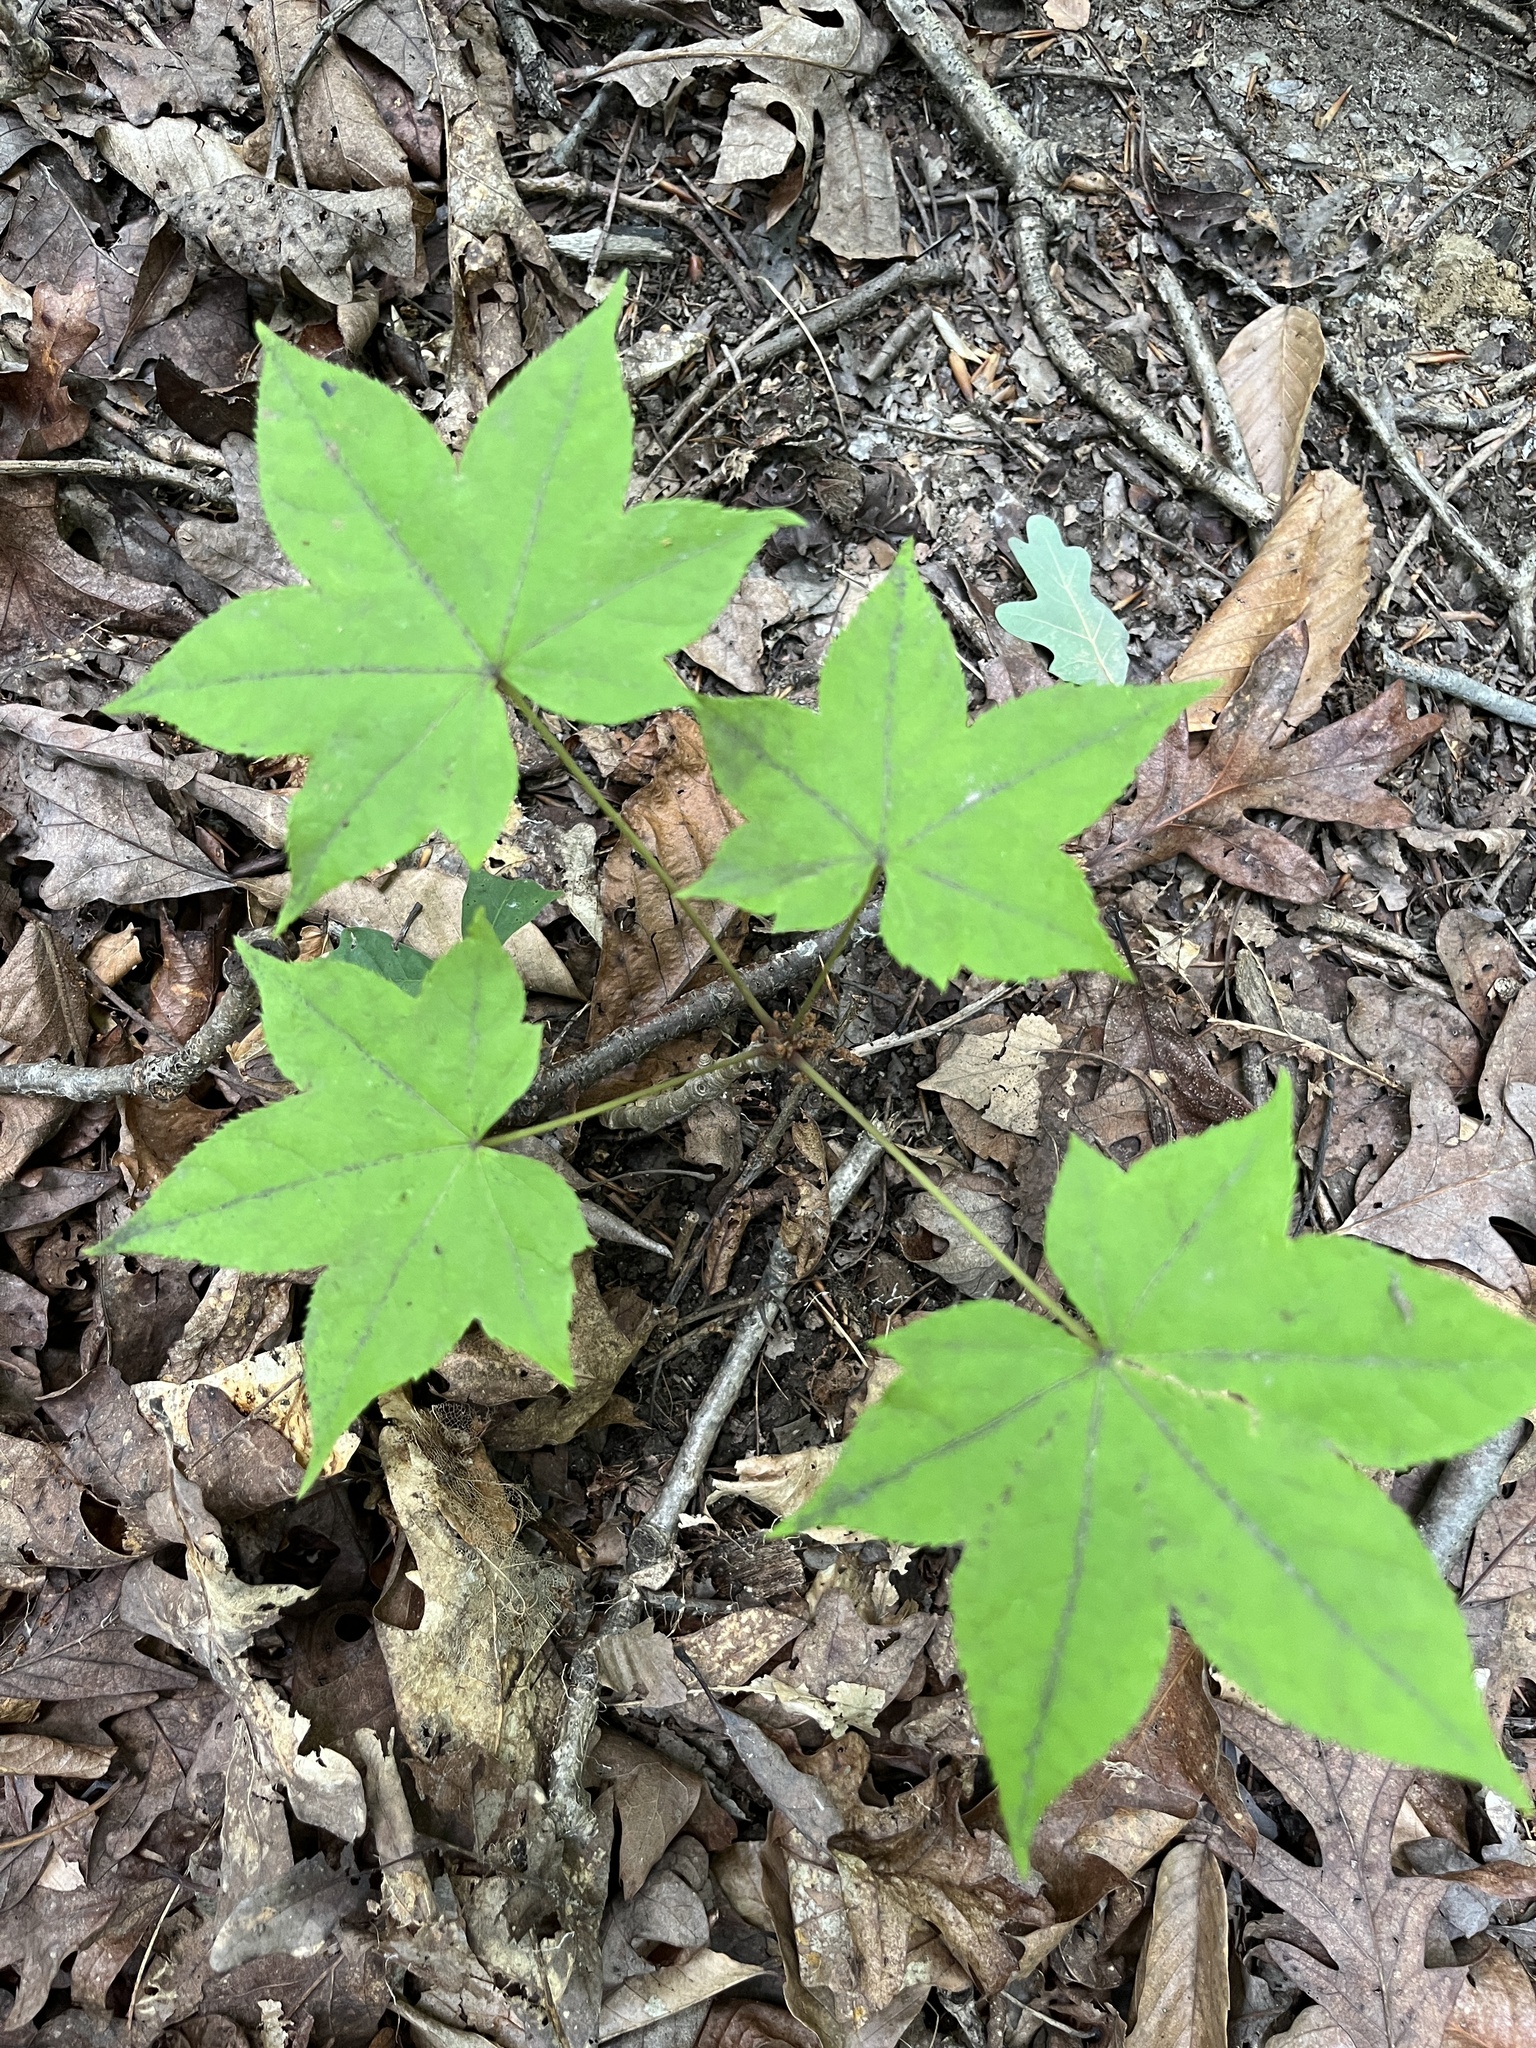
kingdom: Plantae
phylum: Tracheophyta
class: Magnoliopsida
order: Apiales
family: Araliaceae
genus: Kalopanax
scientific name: Kalopanax septemlobus
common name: Castor aralia
